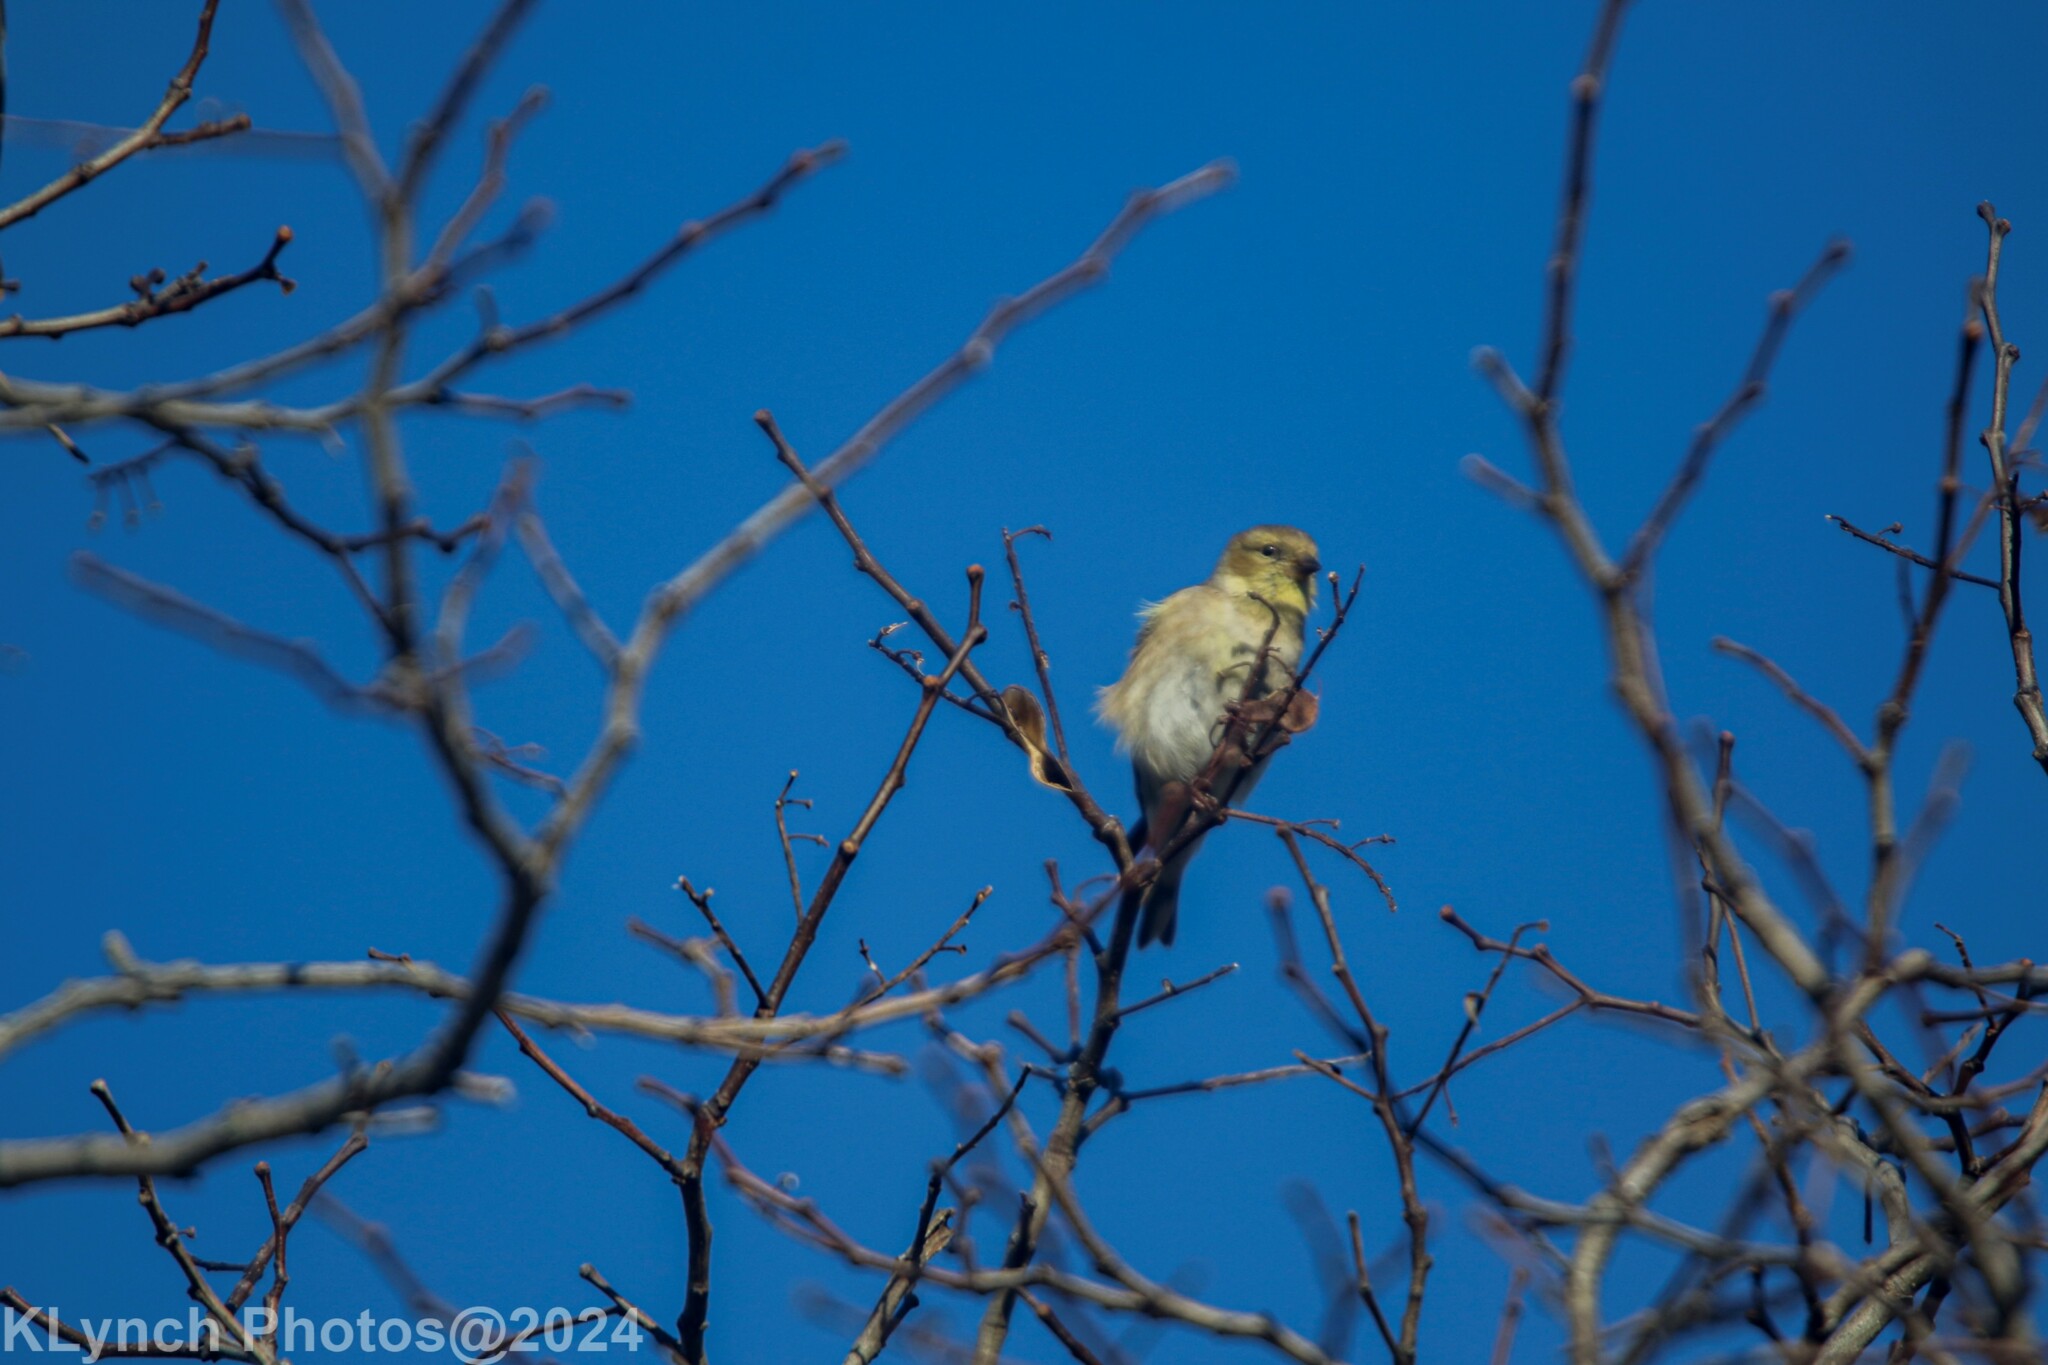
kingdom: Animalia
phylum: Chordata
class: Aves
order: Passeriformes
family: Fringillidae
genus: Spinus
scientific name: Spinus tristis
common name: American goldfinch
